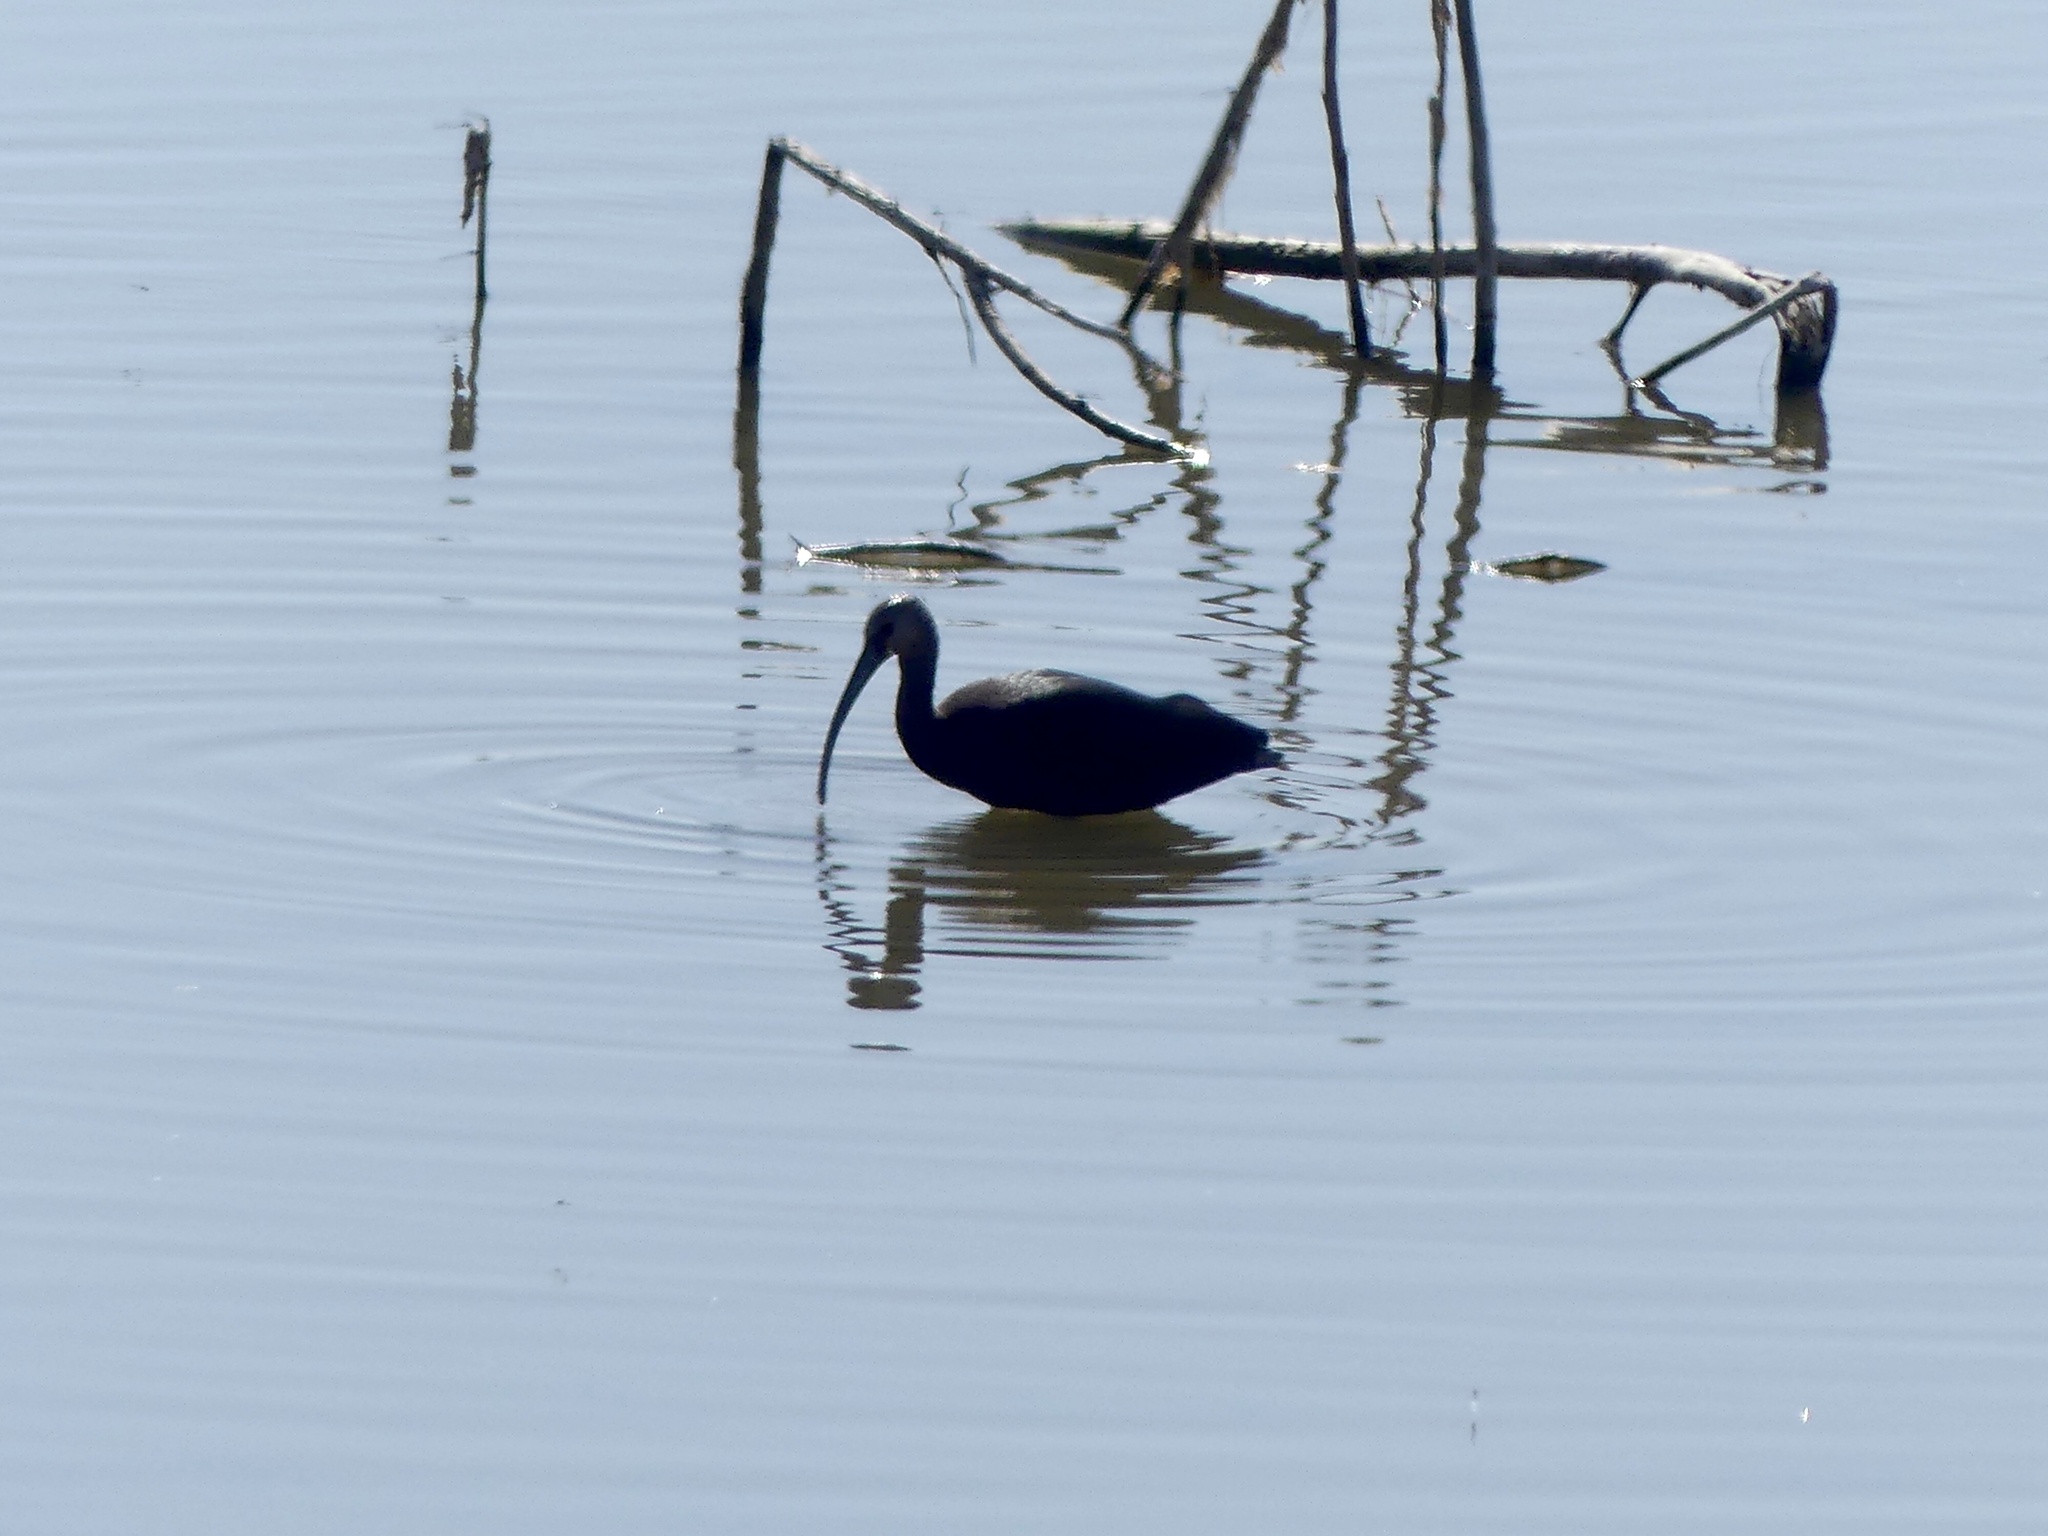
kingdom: Animalia
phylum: Chordata
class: Aves
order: Pelecaniformes
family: Threskiornithidae
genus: Plegadis
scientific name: Plegadis chihi
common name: White-faced ibis
